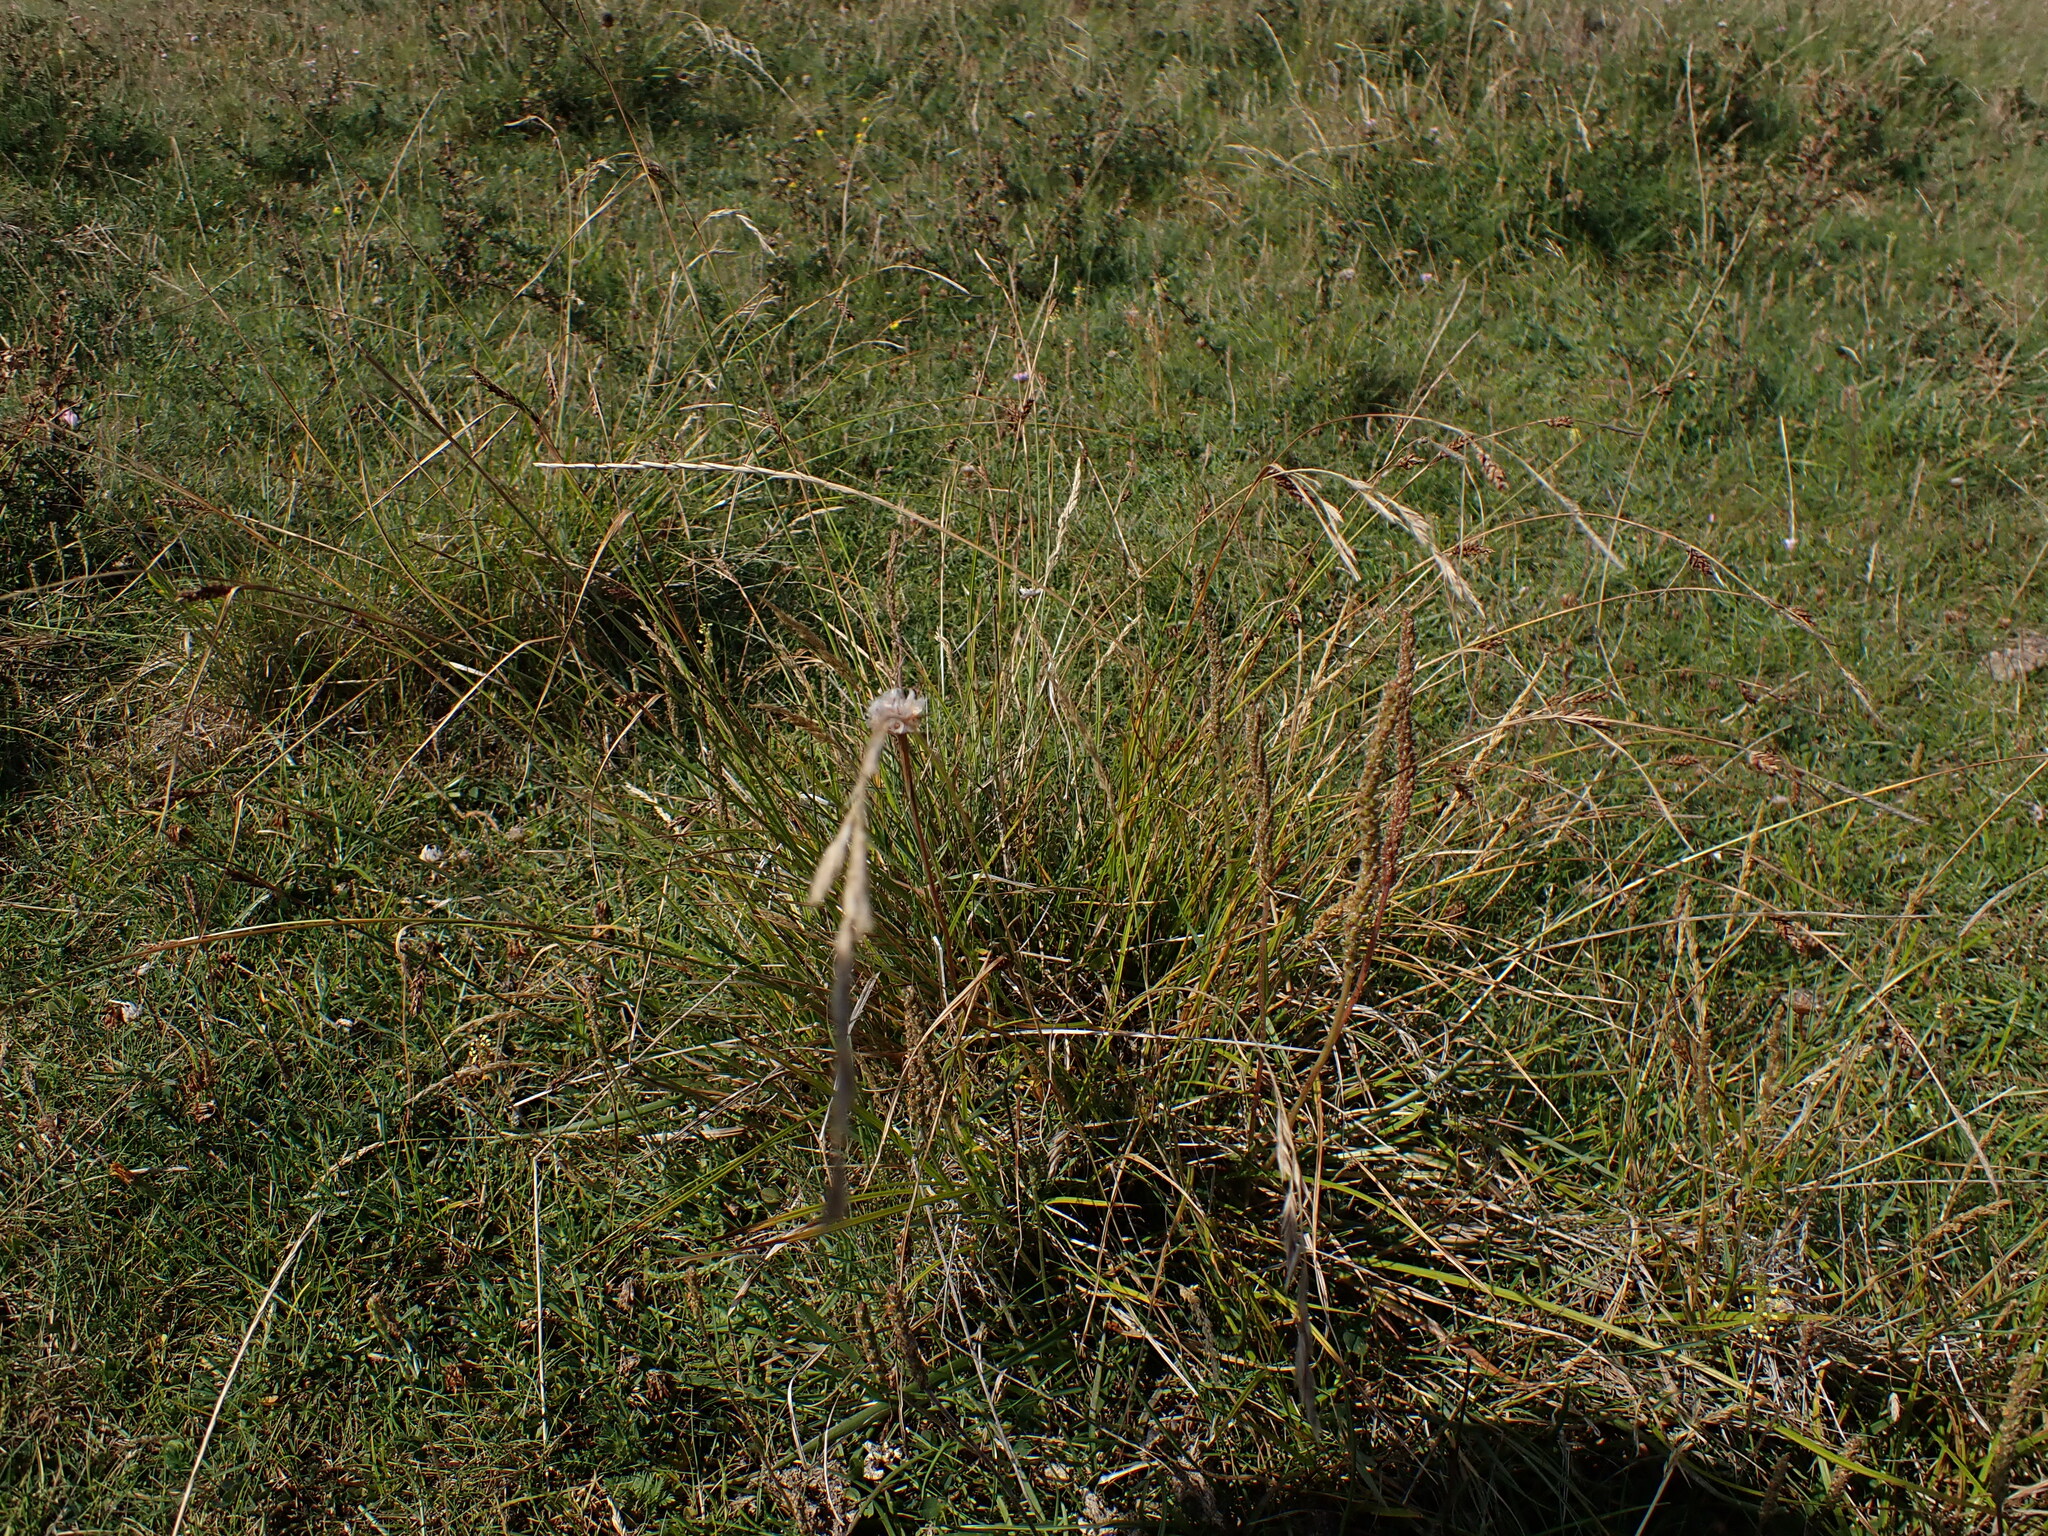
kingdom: Plantae
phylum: Tracheophyta
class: Liliopsida
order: Poales
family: Cyperaceae
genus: Carex
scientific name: Carex distans
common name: Distant sedge
